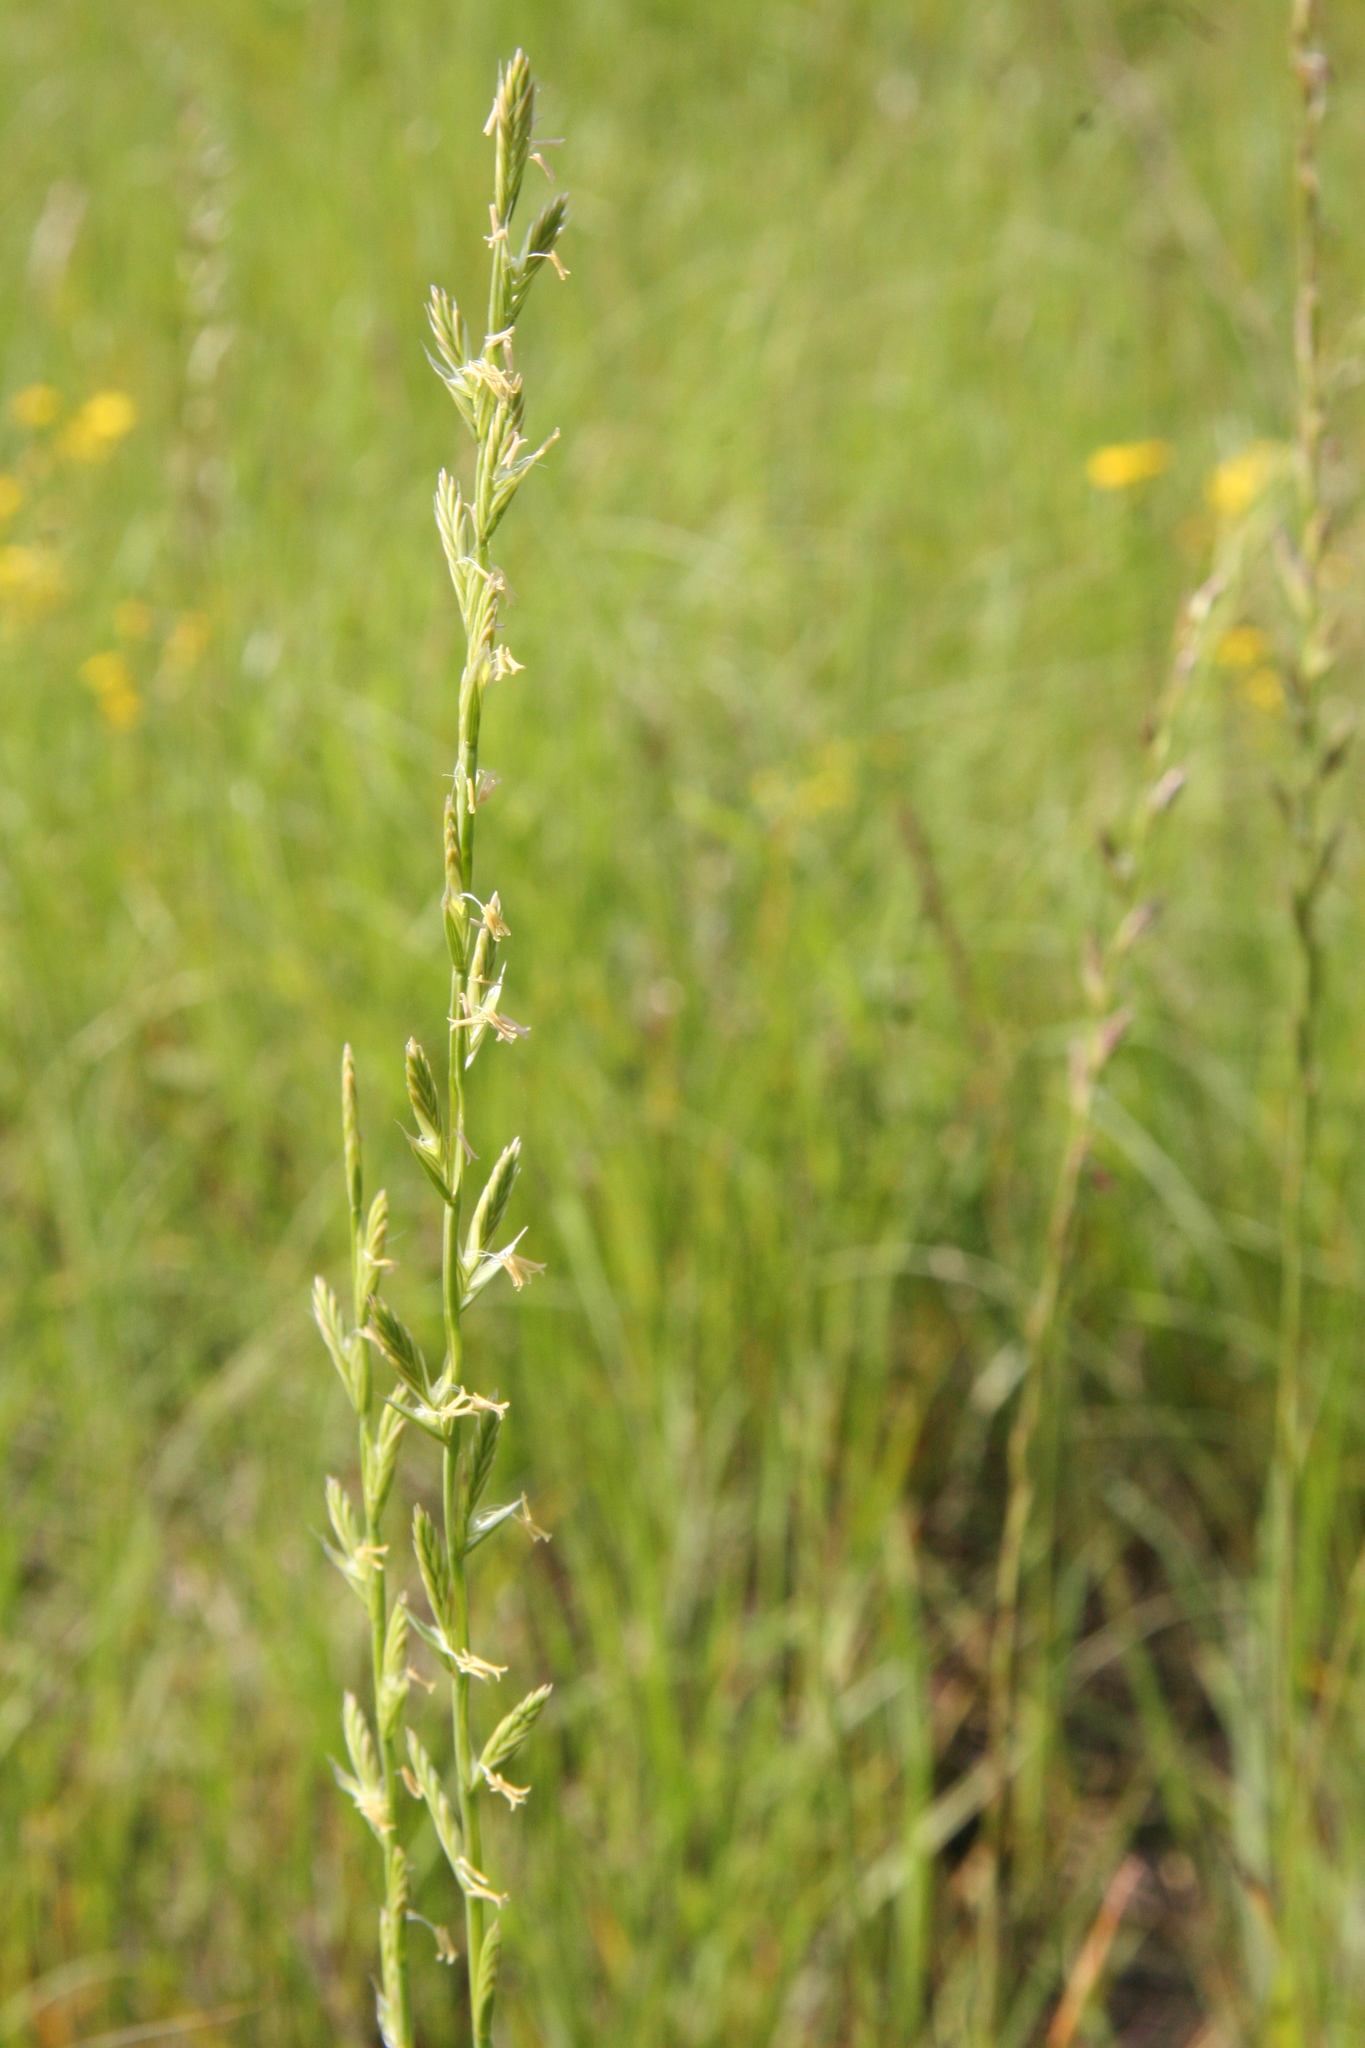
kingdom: Plantae
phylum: Tracheophyta
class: Liliopsida
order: Poales
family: Poaceae
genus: Lolium
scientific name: Lolium perenne
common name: Perennial ryegrass
